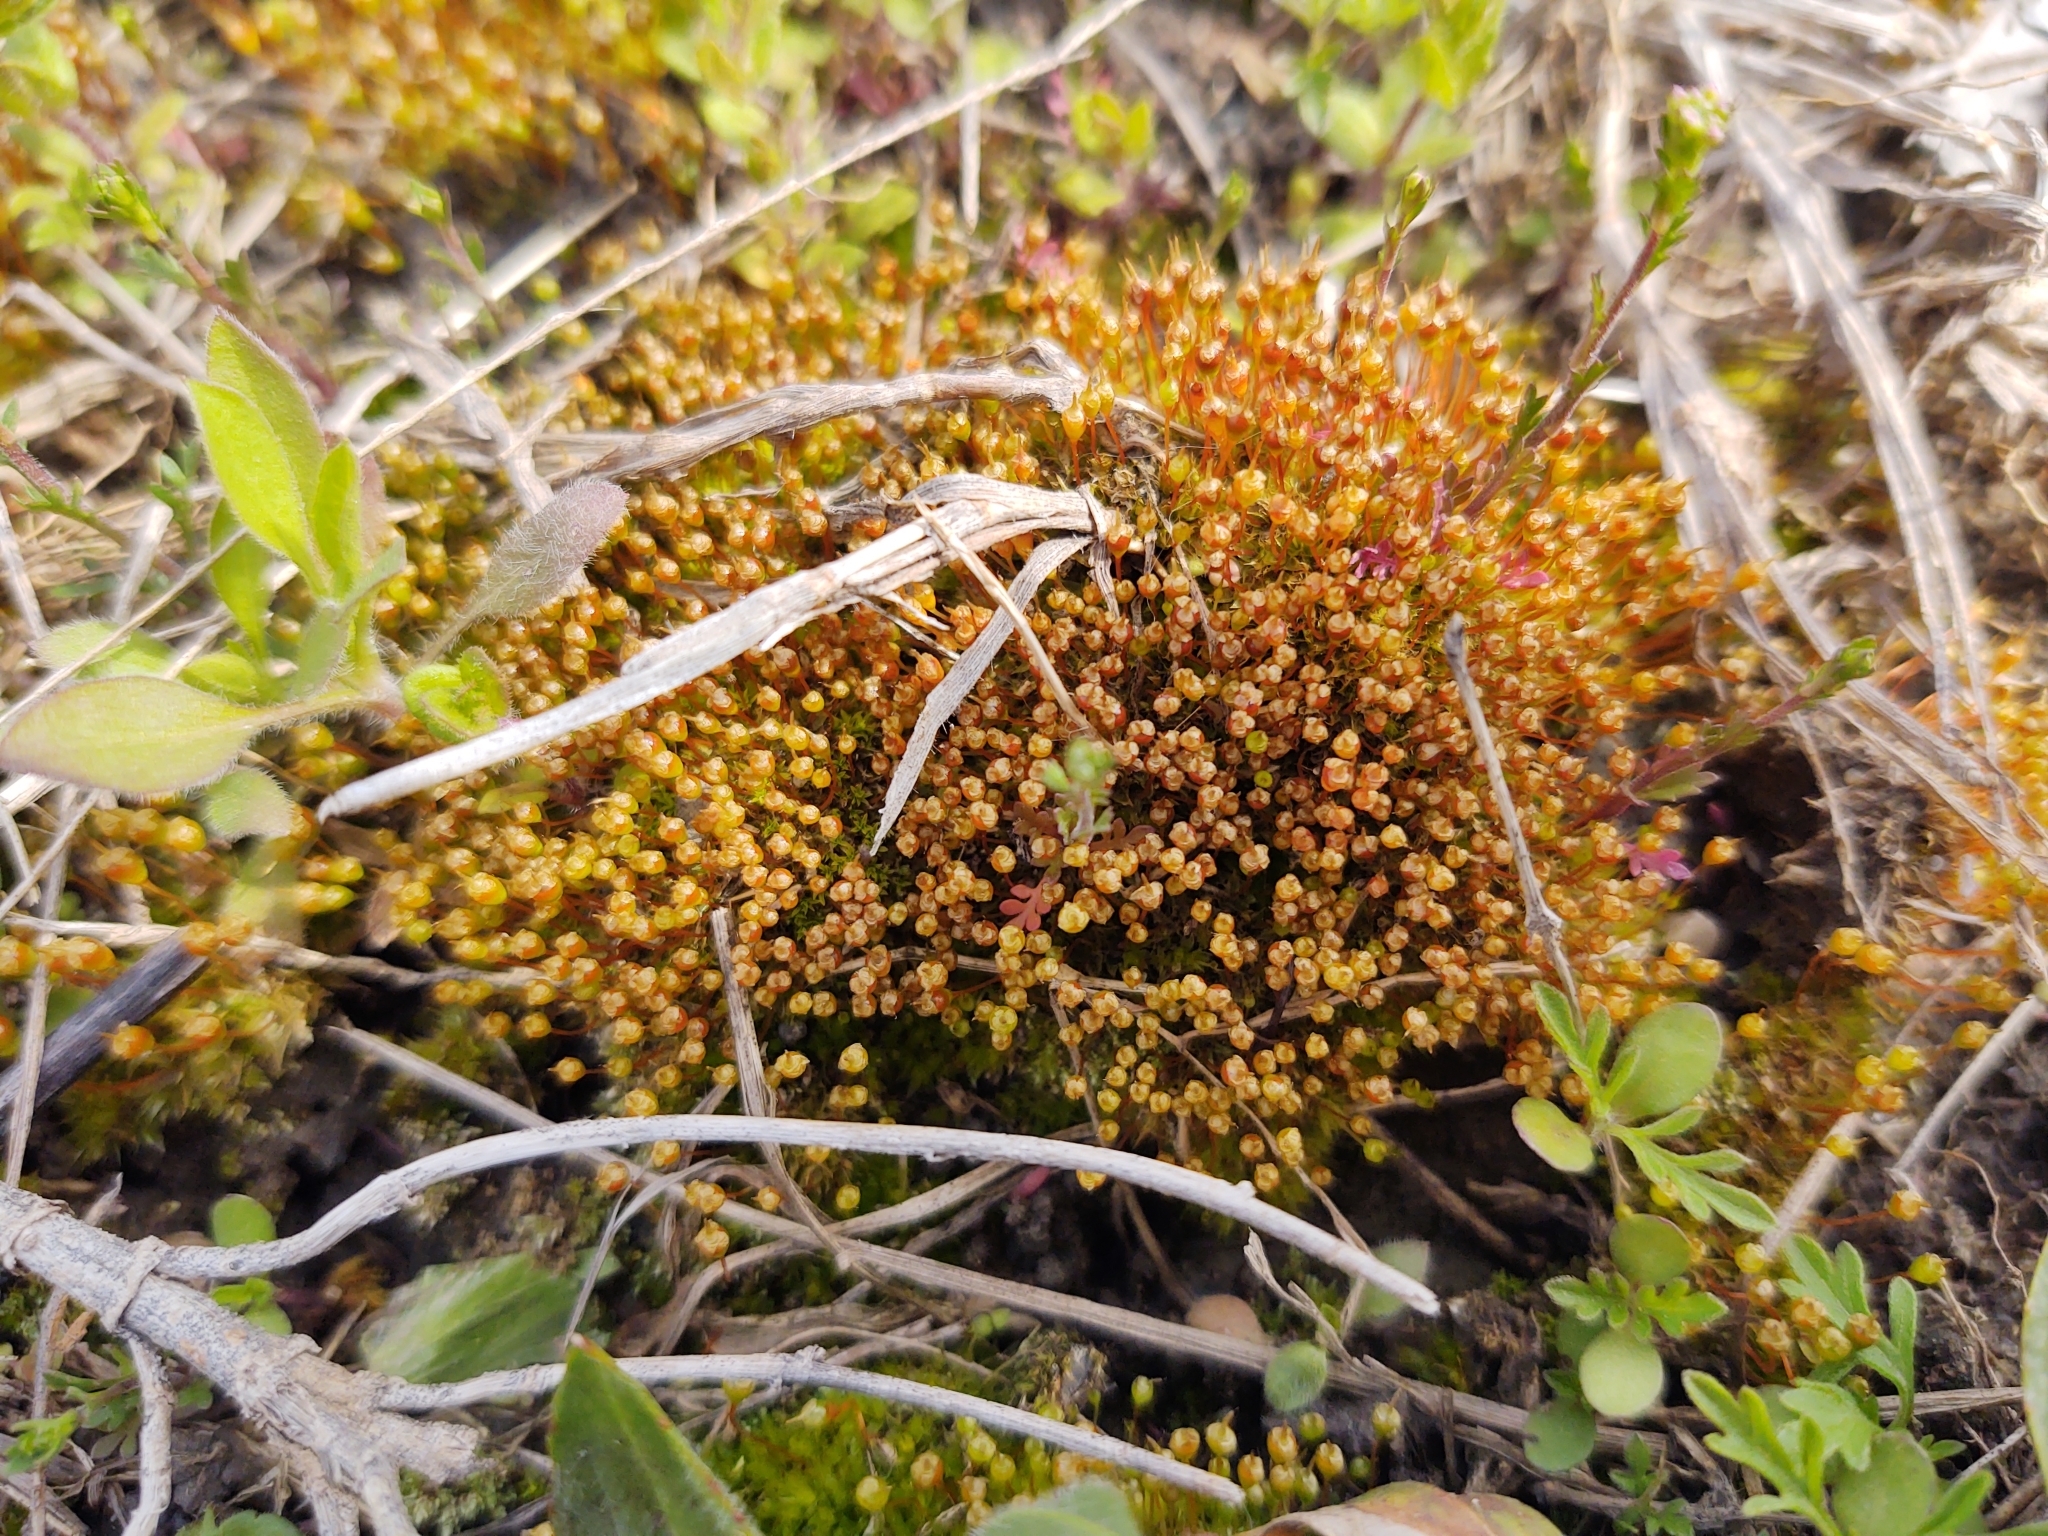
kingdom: Plantae
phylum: Bryophyta
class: Bryopsida
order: Funariales
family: Funariaceae
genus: Physcomitrium
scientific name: Physcomitrium pyriforme
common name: Common bladder-moss
